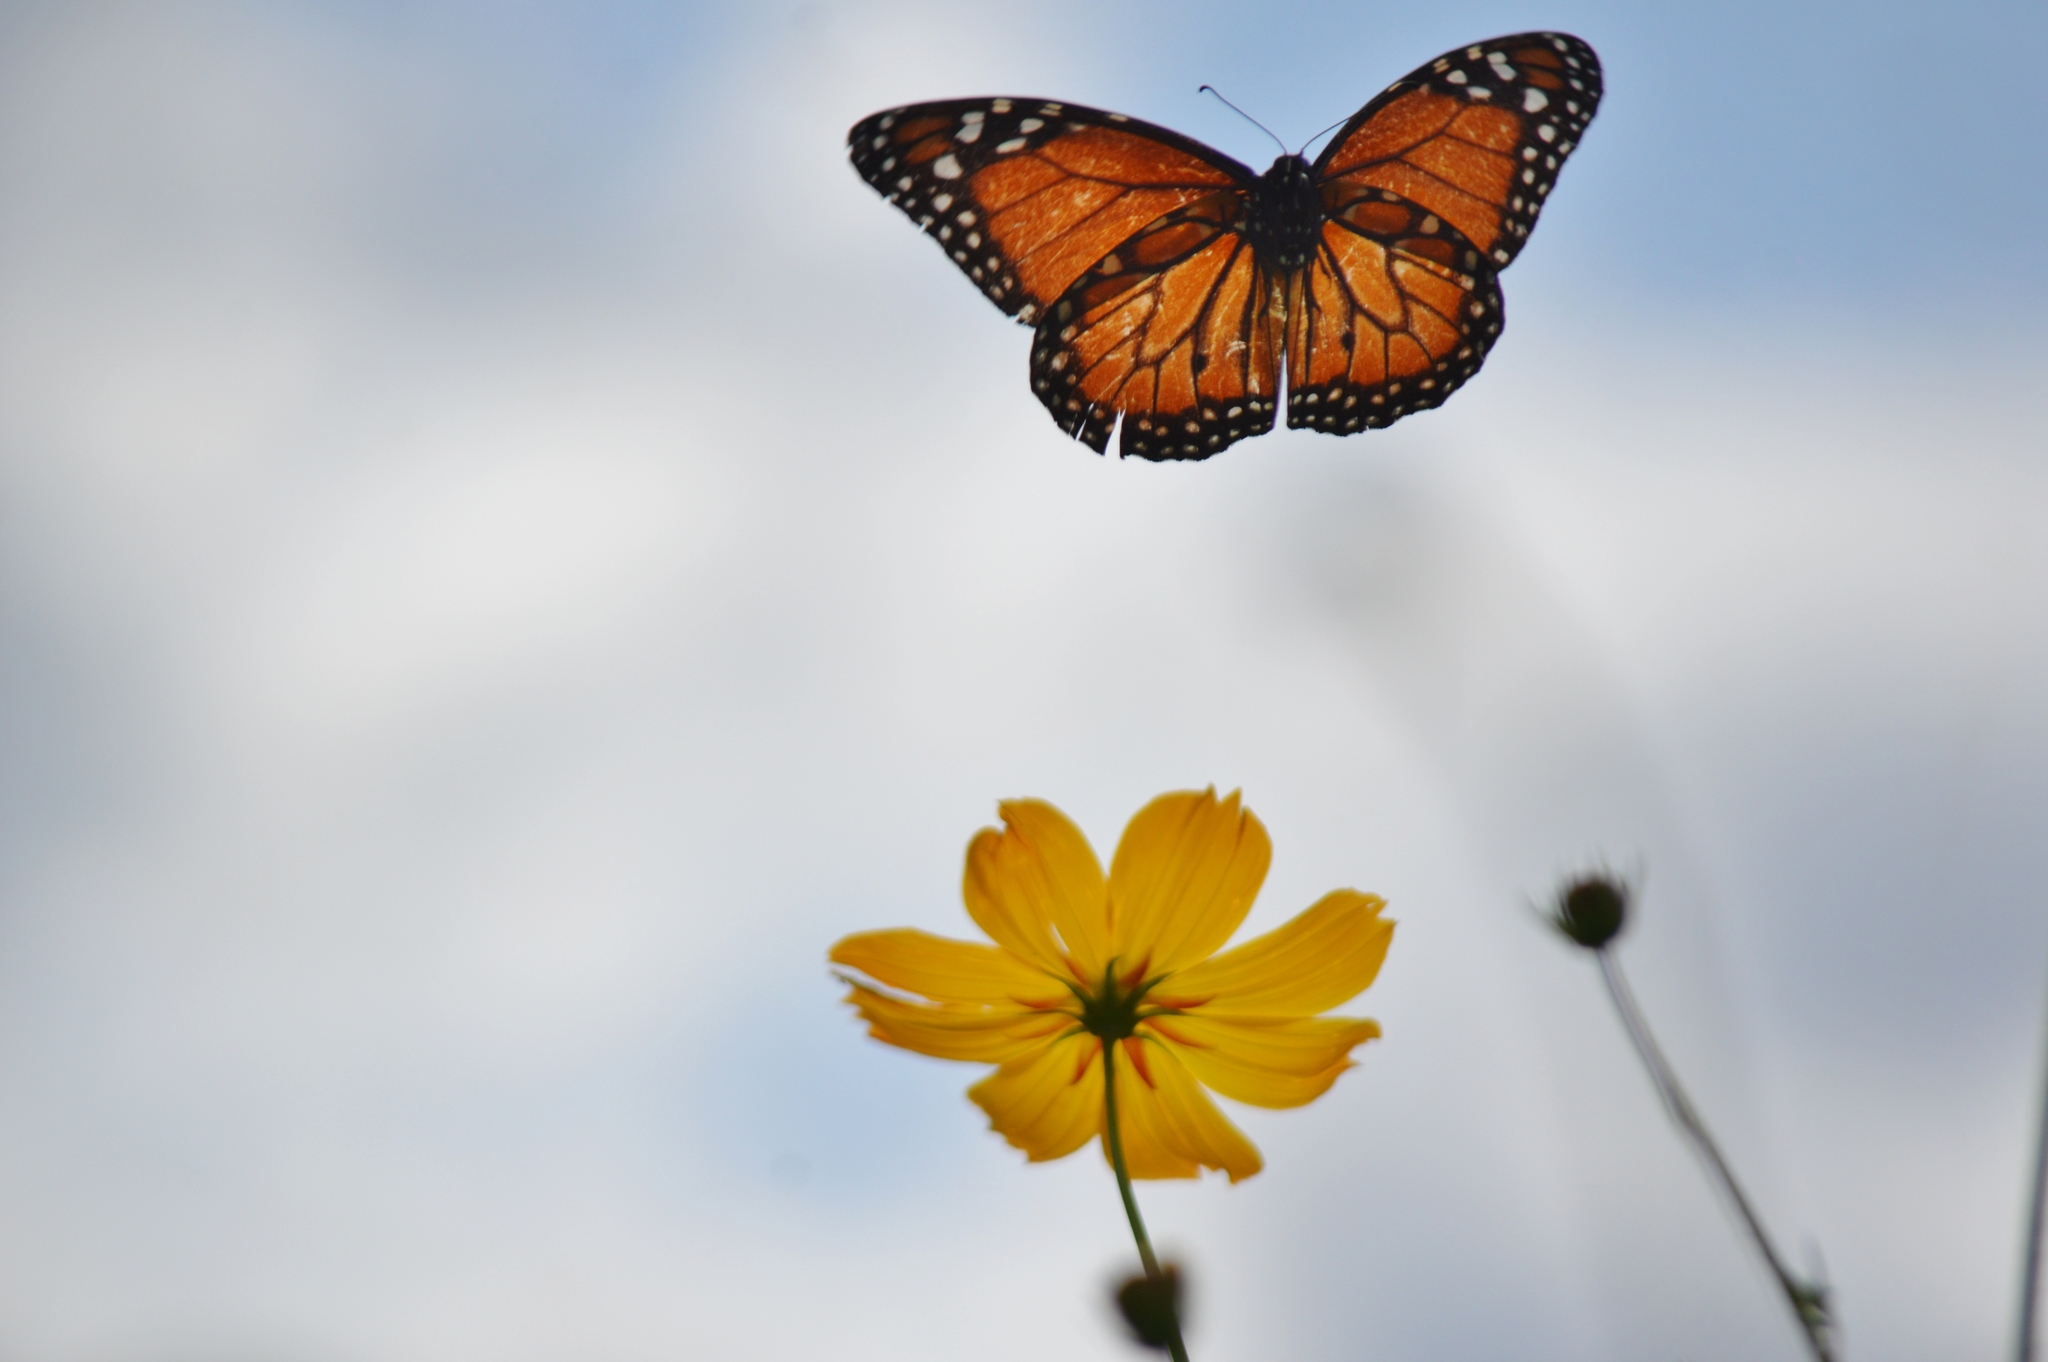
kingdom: Animalia
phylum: Arthropoda
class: Insecta
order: Lepidoptera
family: Nymphalidae
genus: Danaus
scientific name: Danaus erippus
